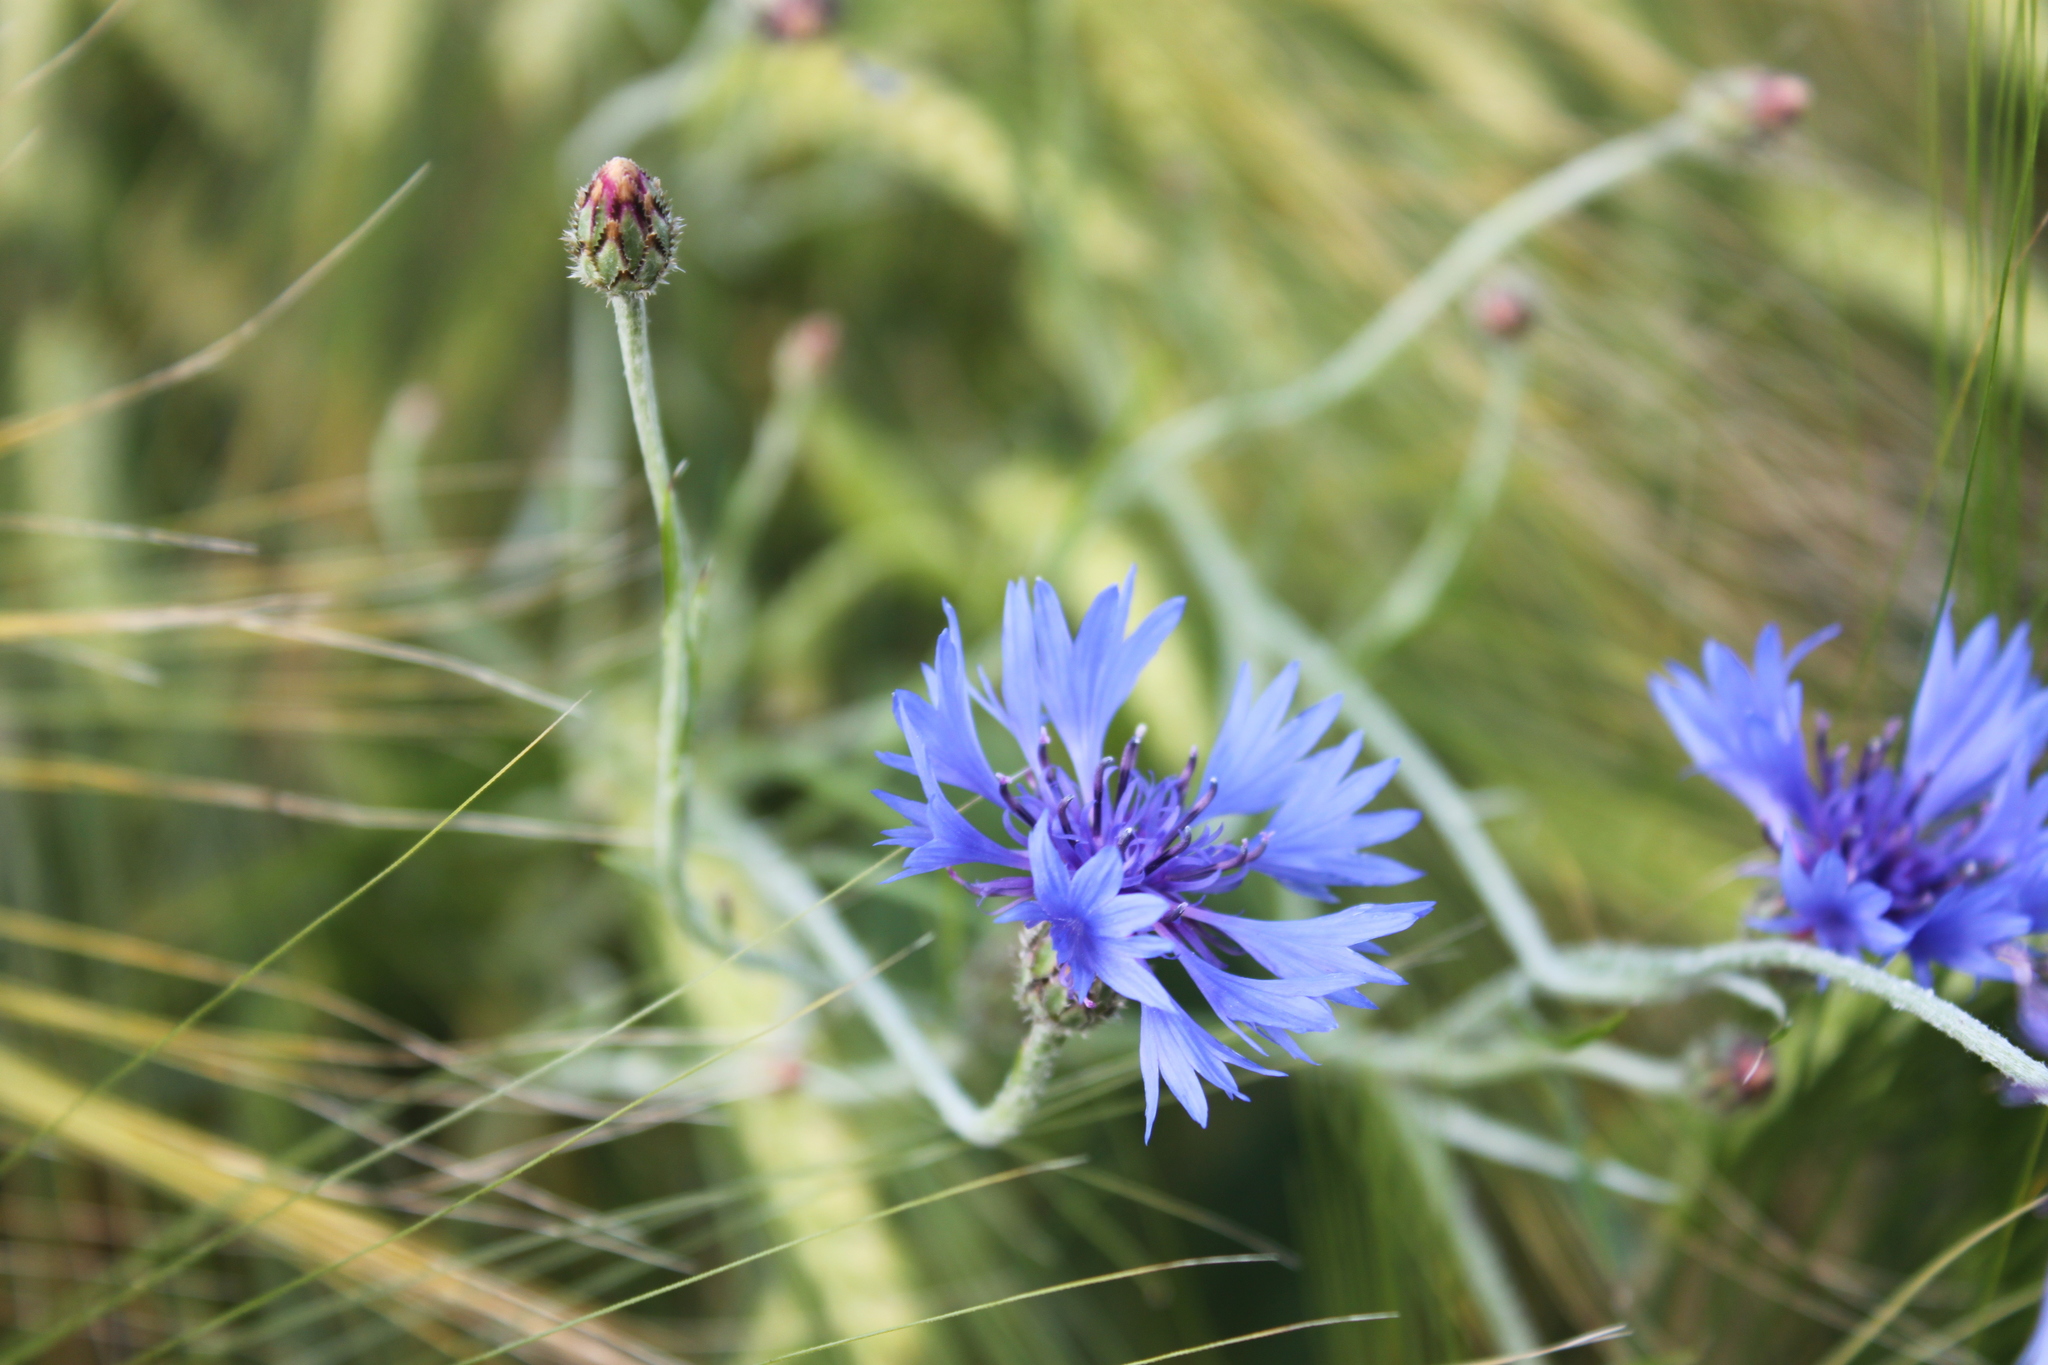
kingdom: Plantae
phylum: Tracheophyta
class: Magnoliopsida
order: Asterales
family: Asteraceae
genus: Centaurea
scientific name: Centaurea cyanus
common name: Cornflower
